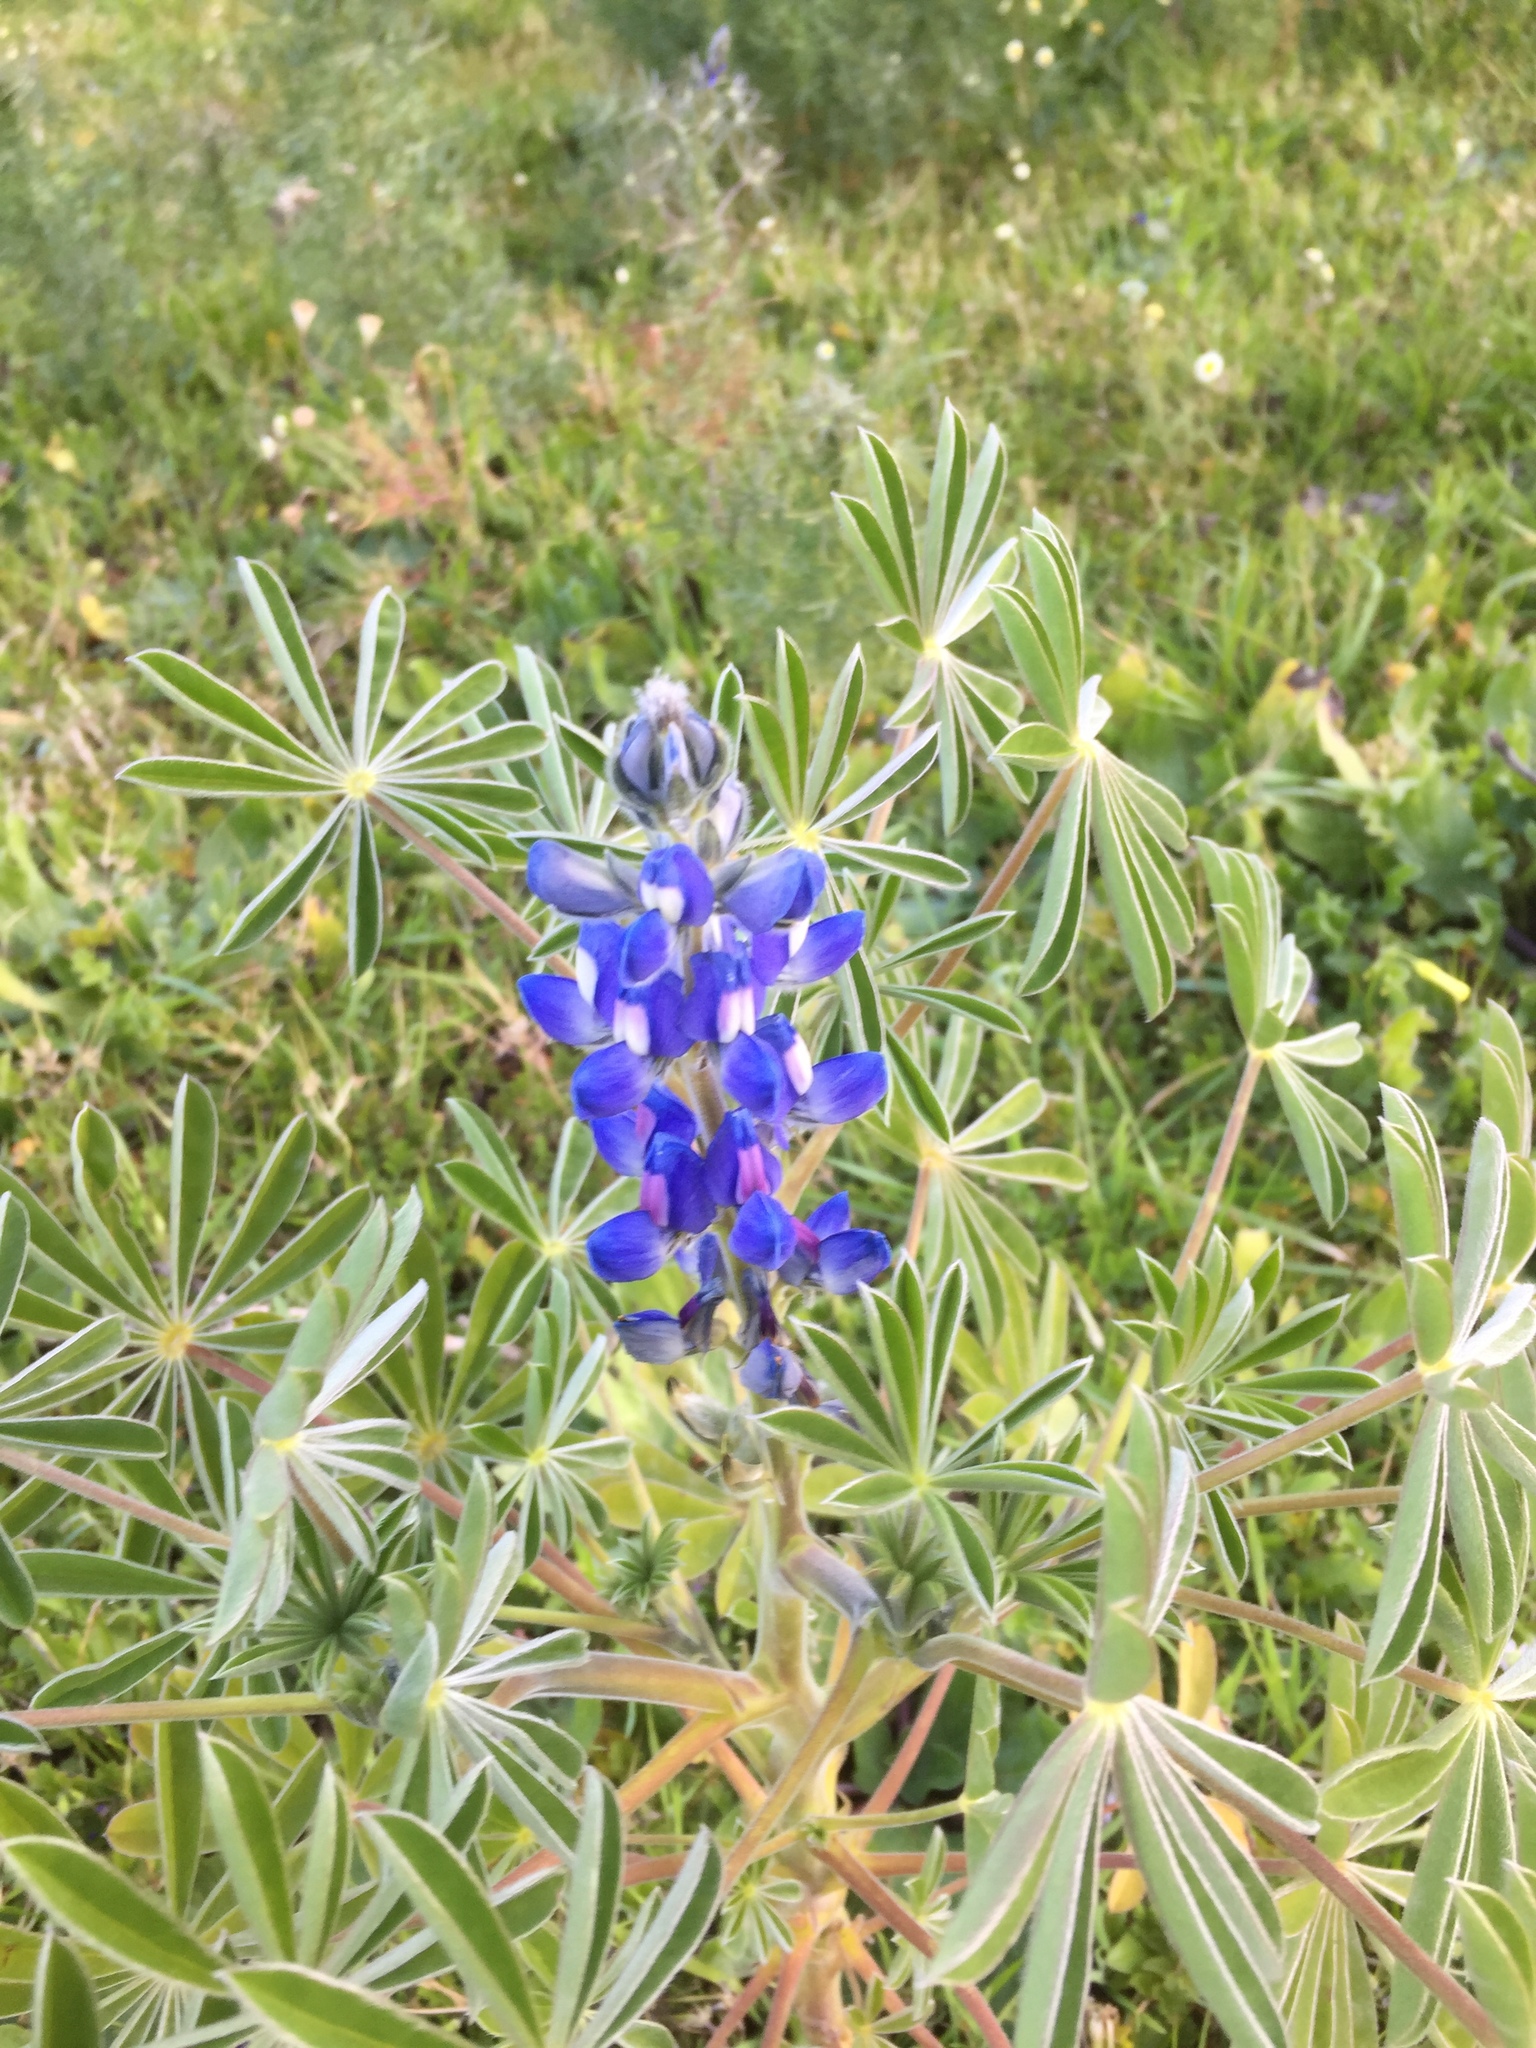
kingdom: Plantae
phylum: Tracheophyta
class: Magnoliopsida
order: Fabales
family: Fabaceae
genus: Lupinus
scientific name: Lupinus cosentinii
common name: Hairy blue lupin
